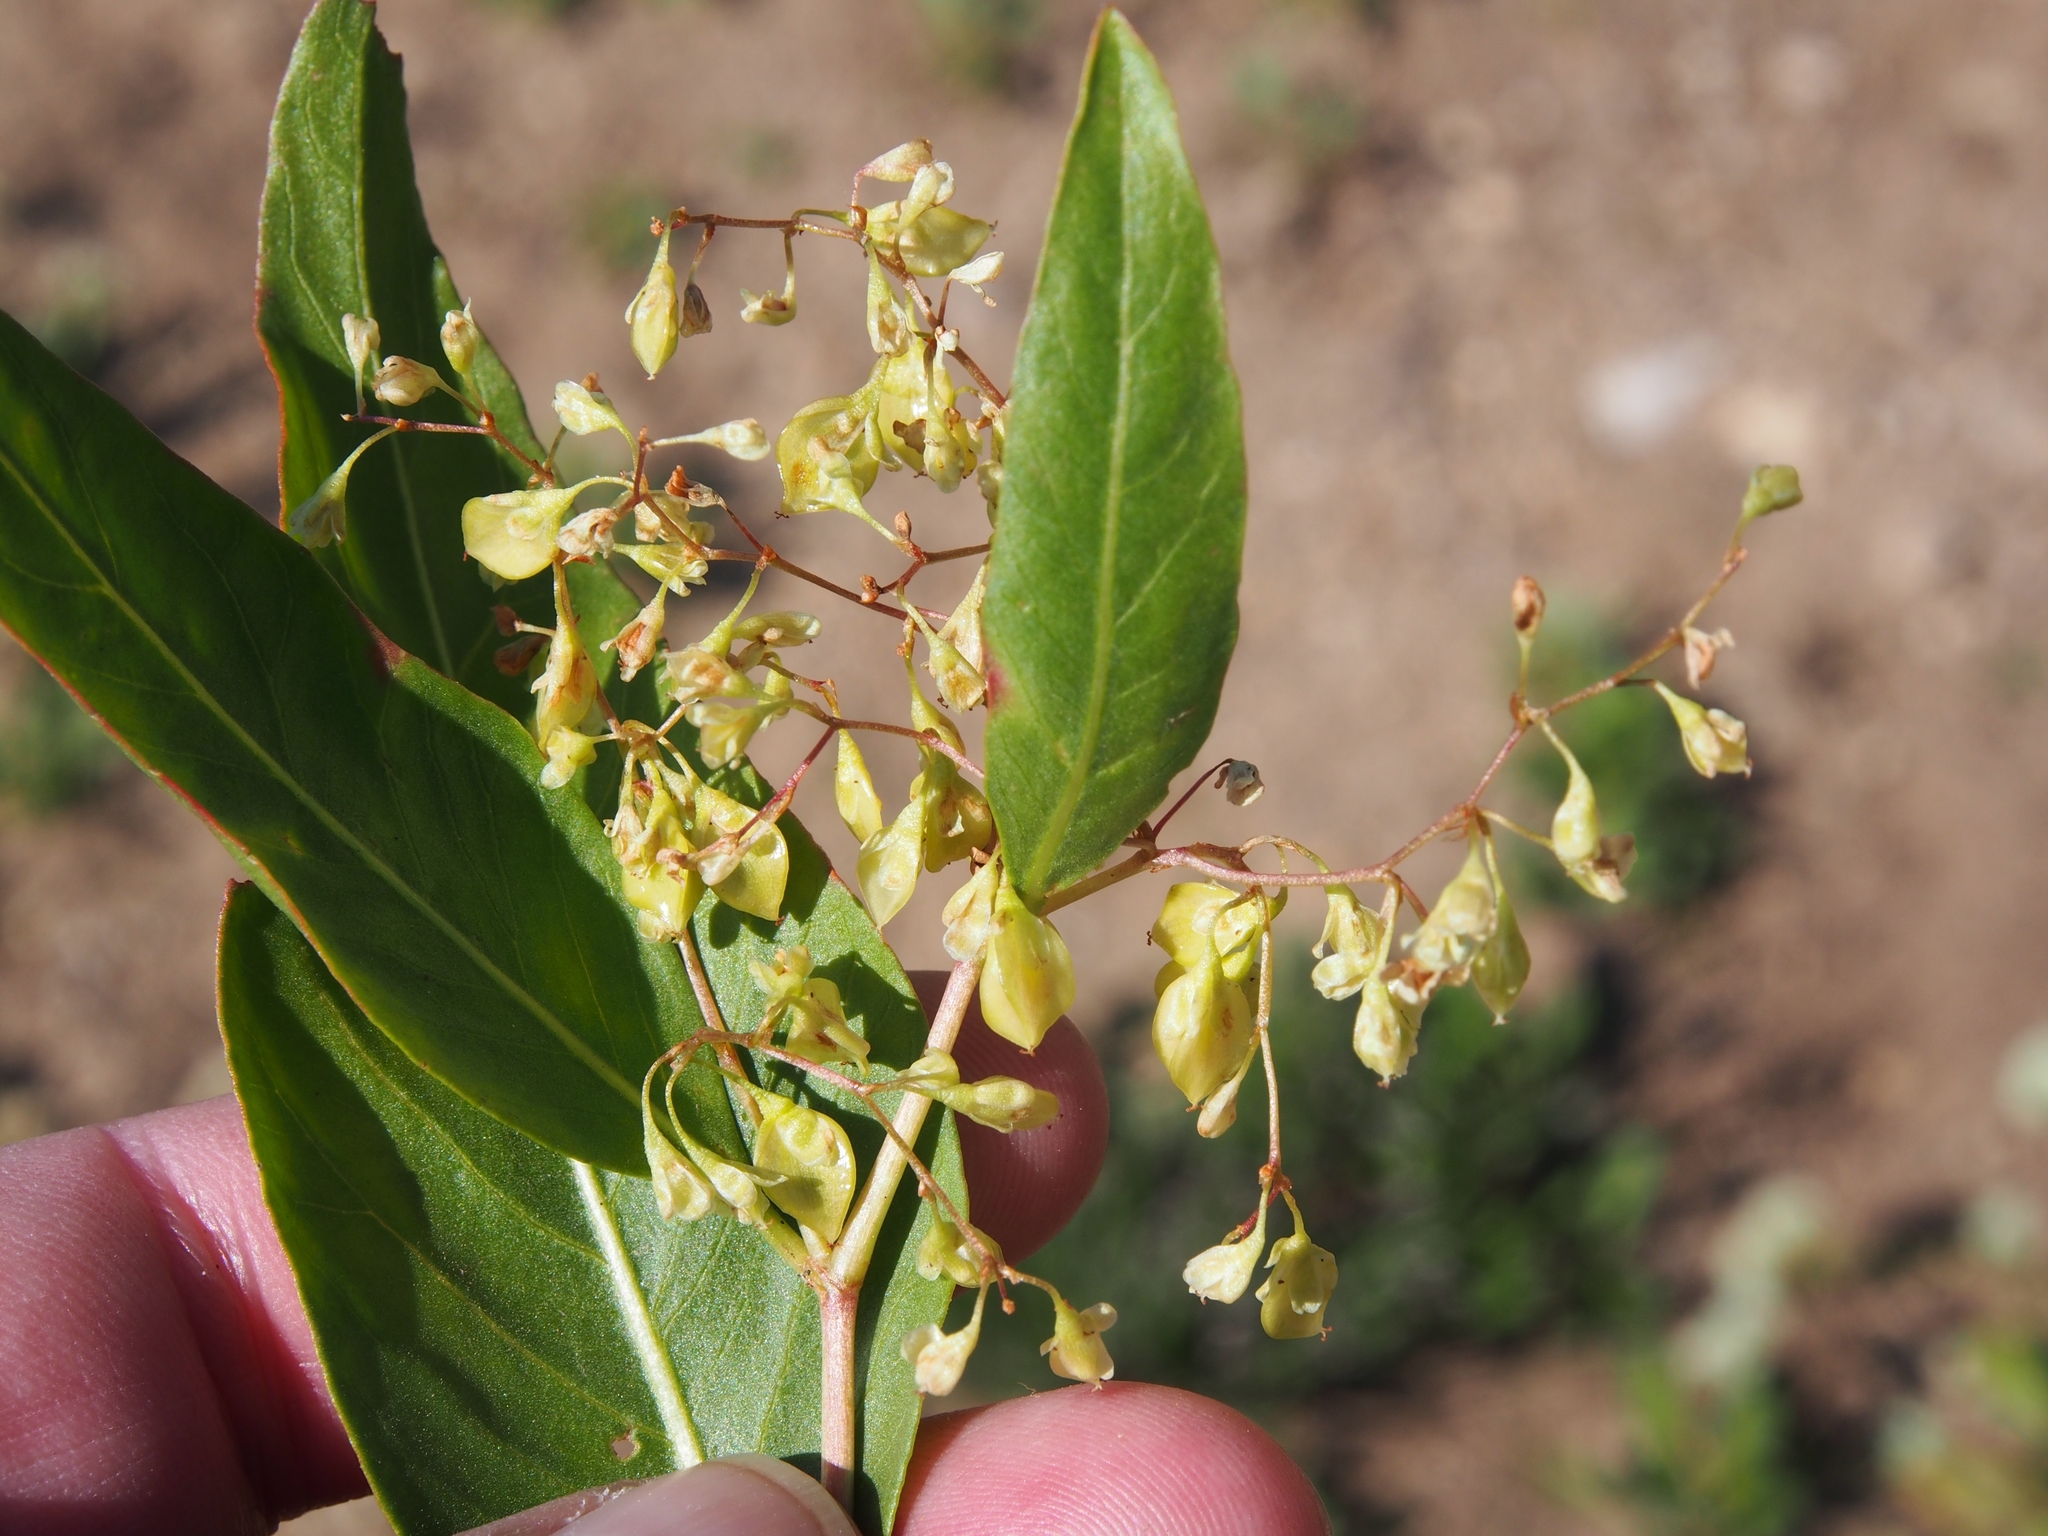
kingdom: Plantae
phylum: Tracheophyta
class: Magnoliopsida
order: Caryophyllales
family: Polygonaceae
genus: Koenigia
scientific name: Koenigia phytolaccifolia
